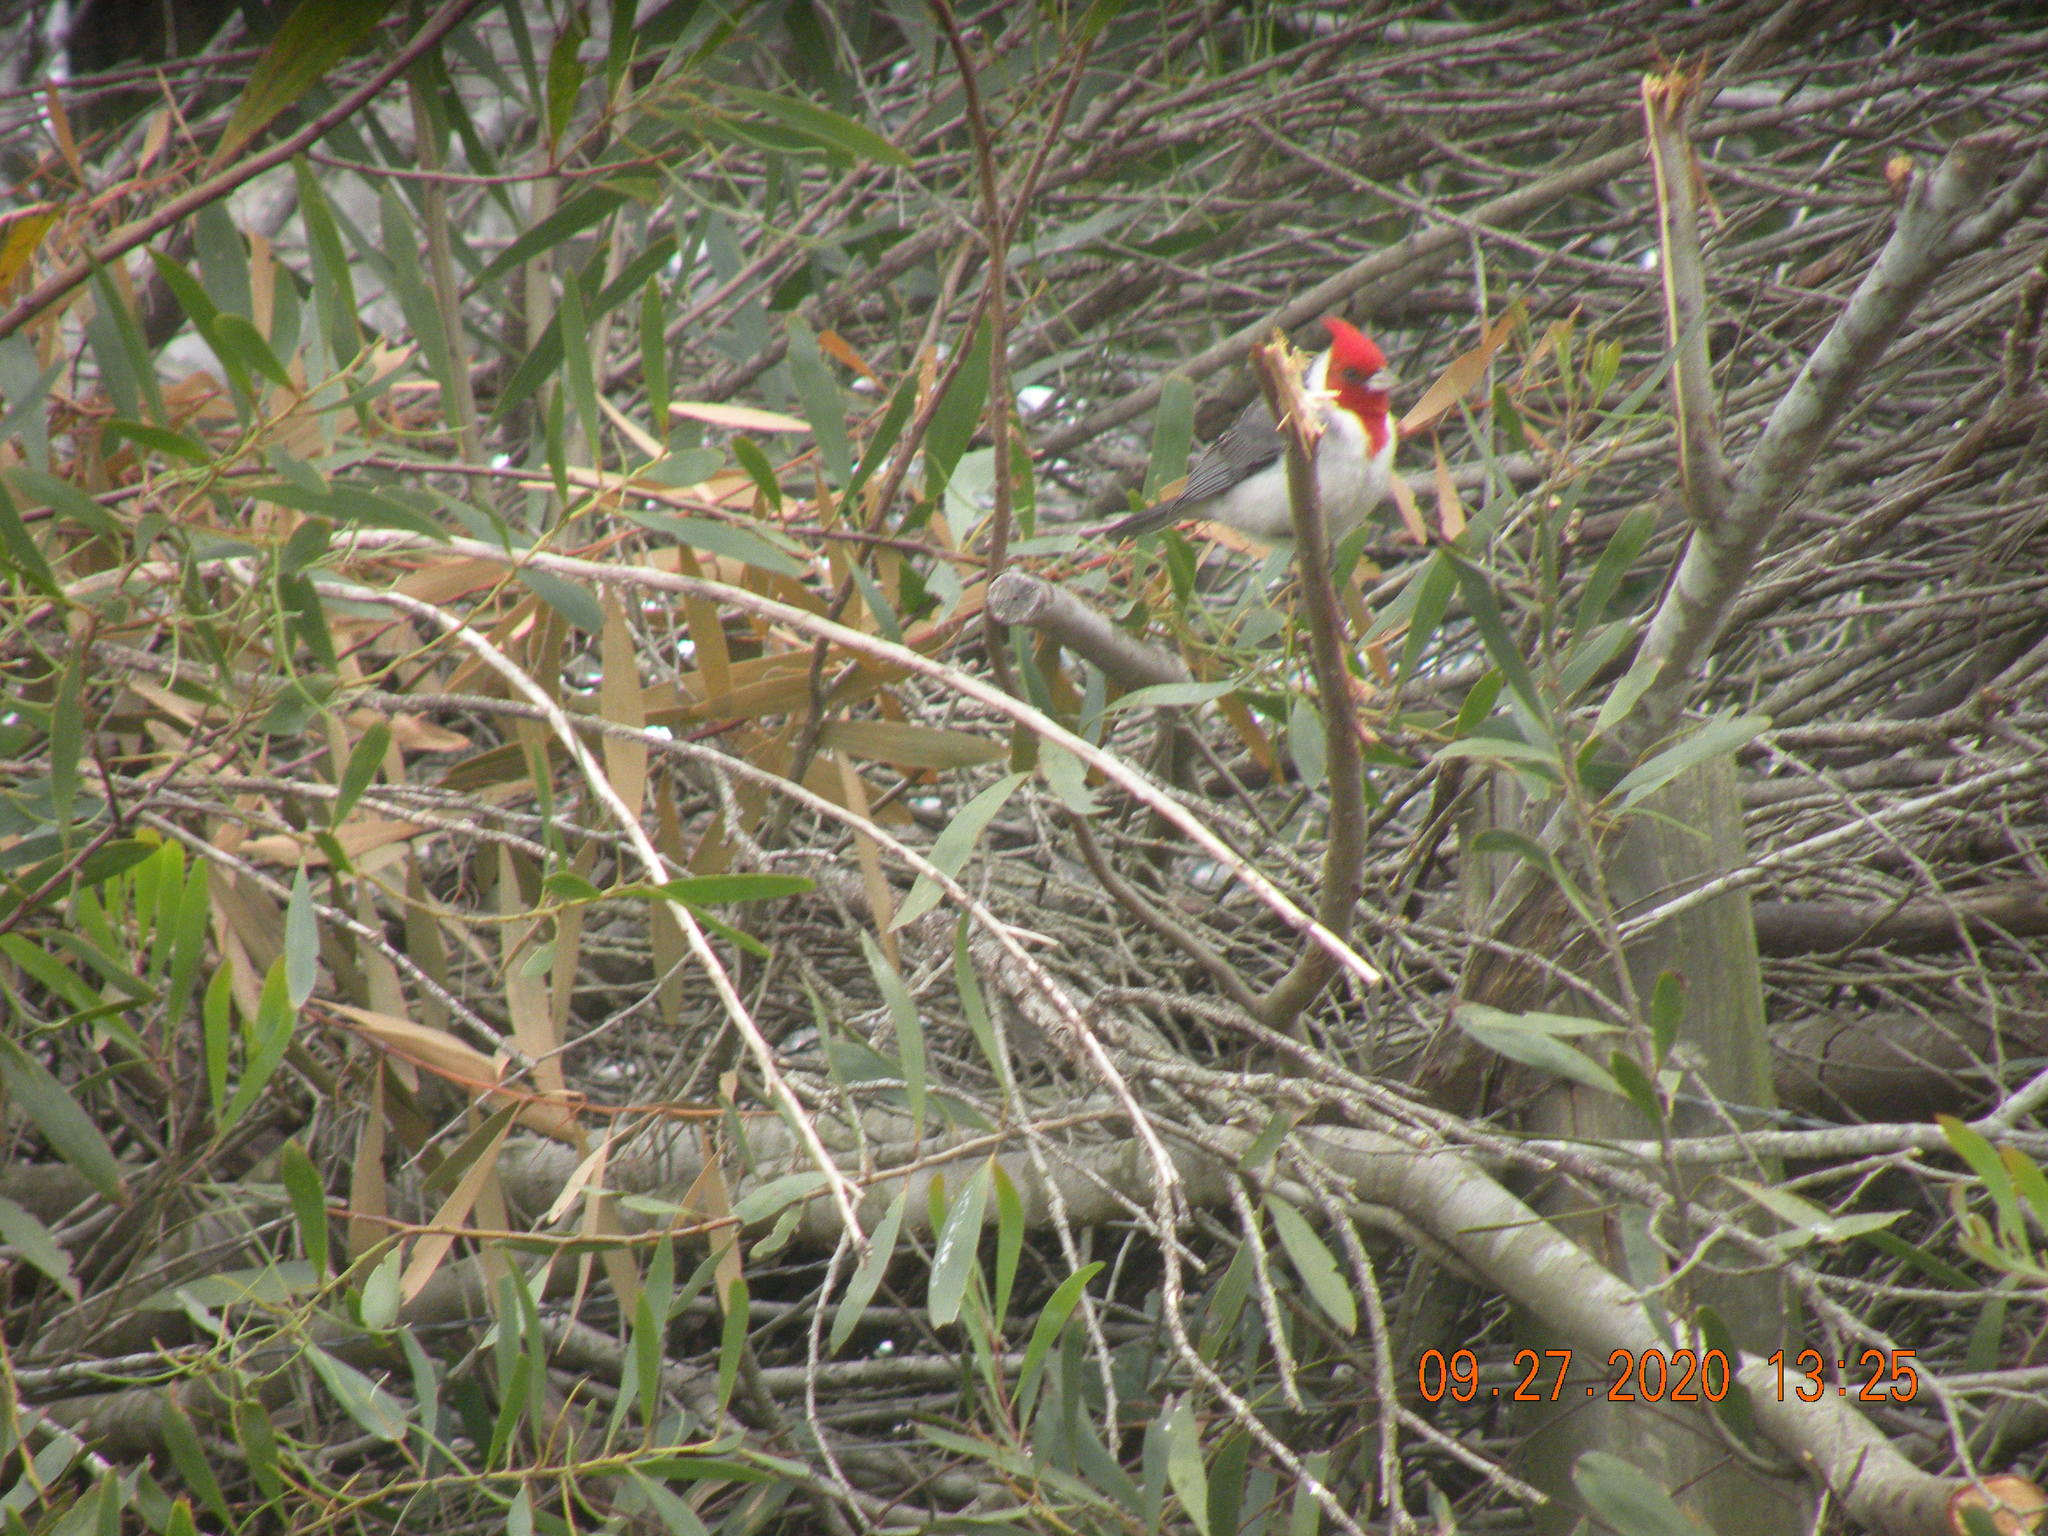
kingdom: Animalia
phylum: Chordata
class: Aves
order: Passeriformes
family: Thraupidae
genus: Paroaria
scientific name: Paroaria coronata
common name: Red-crested cardinal
